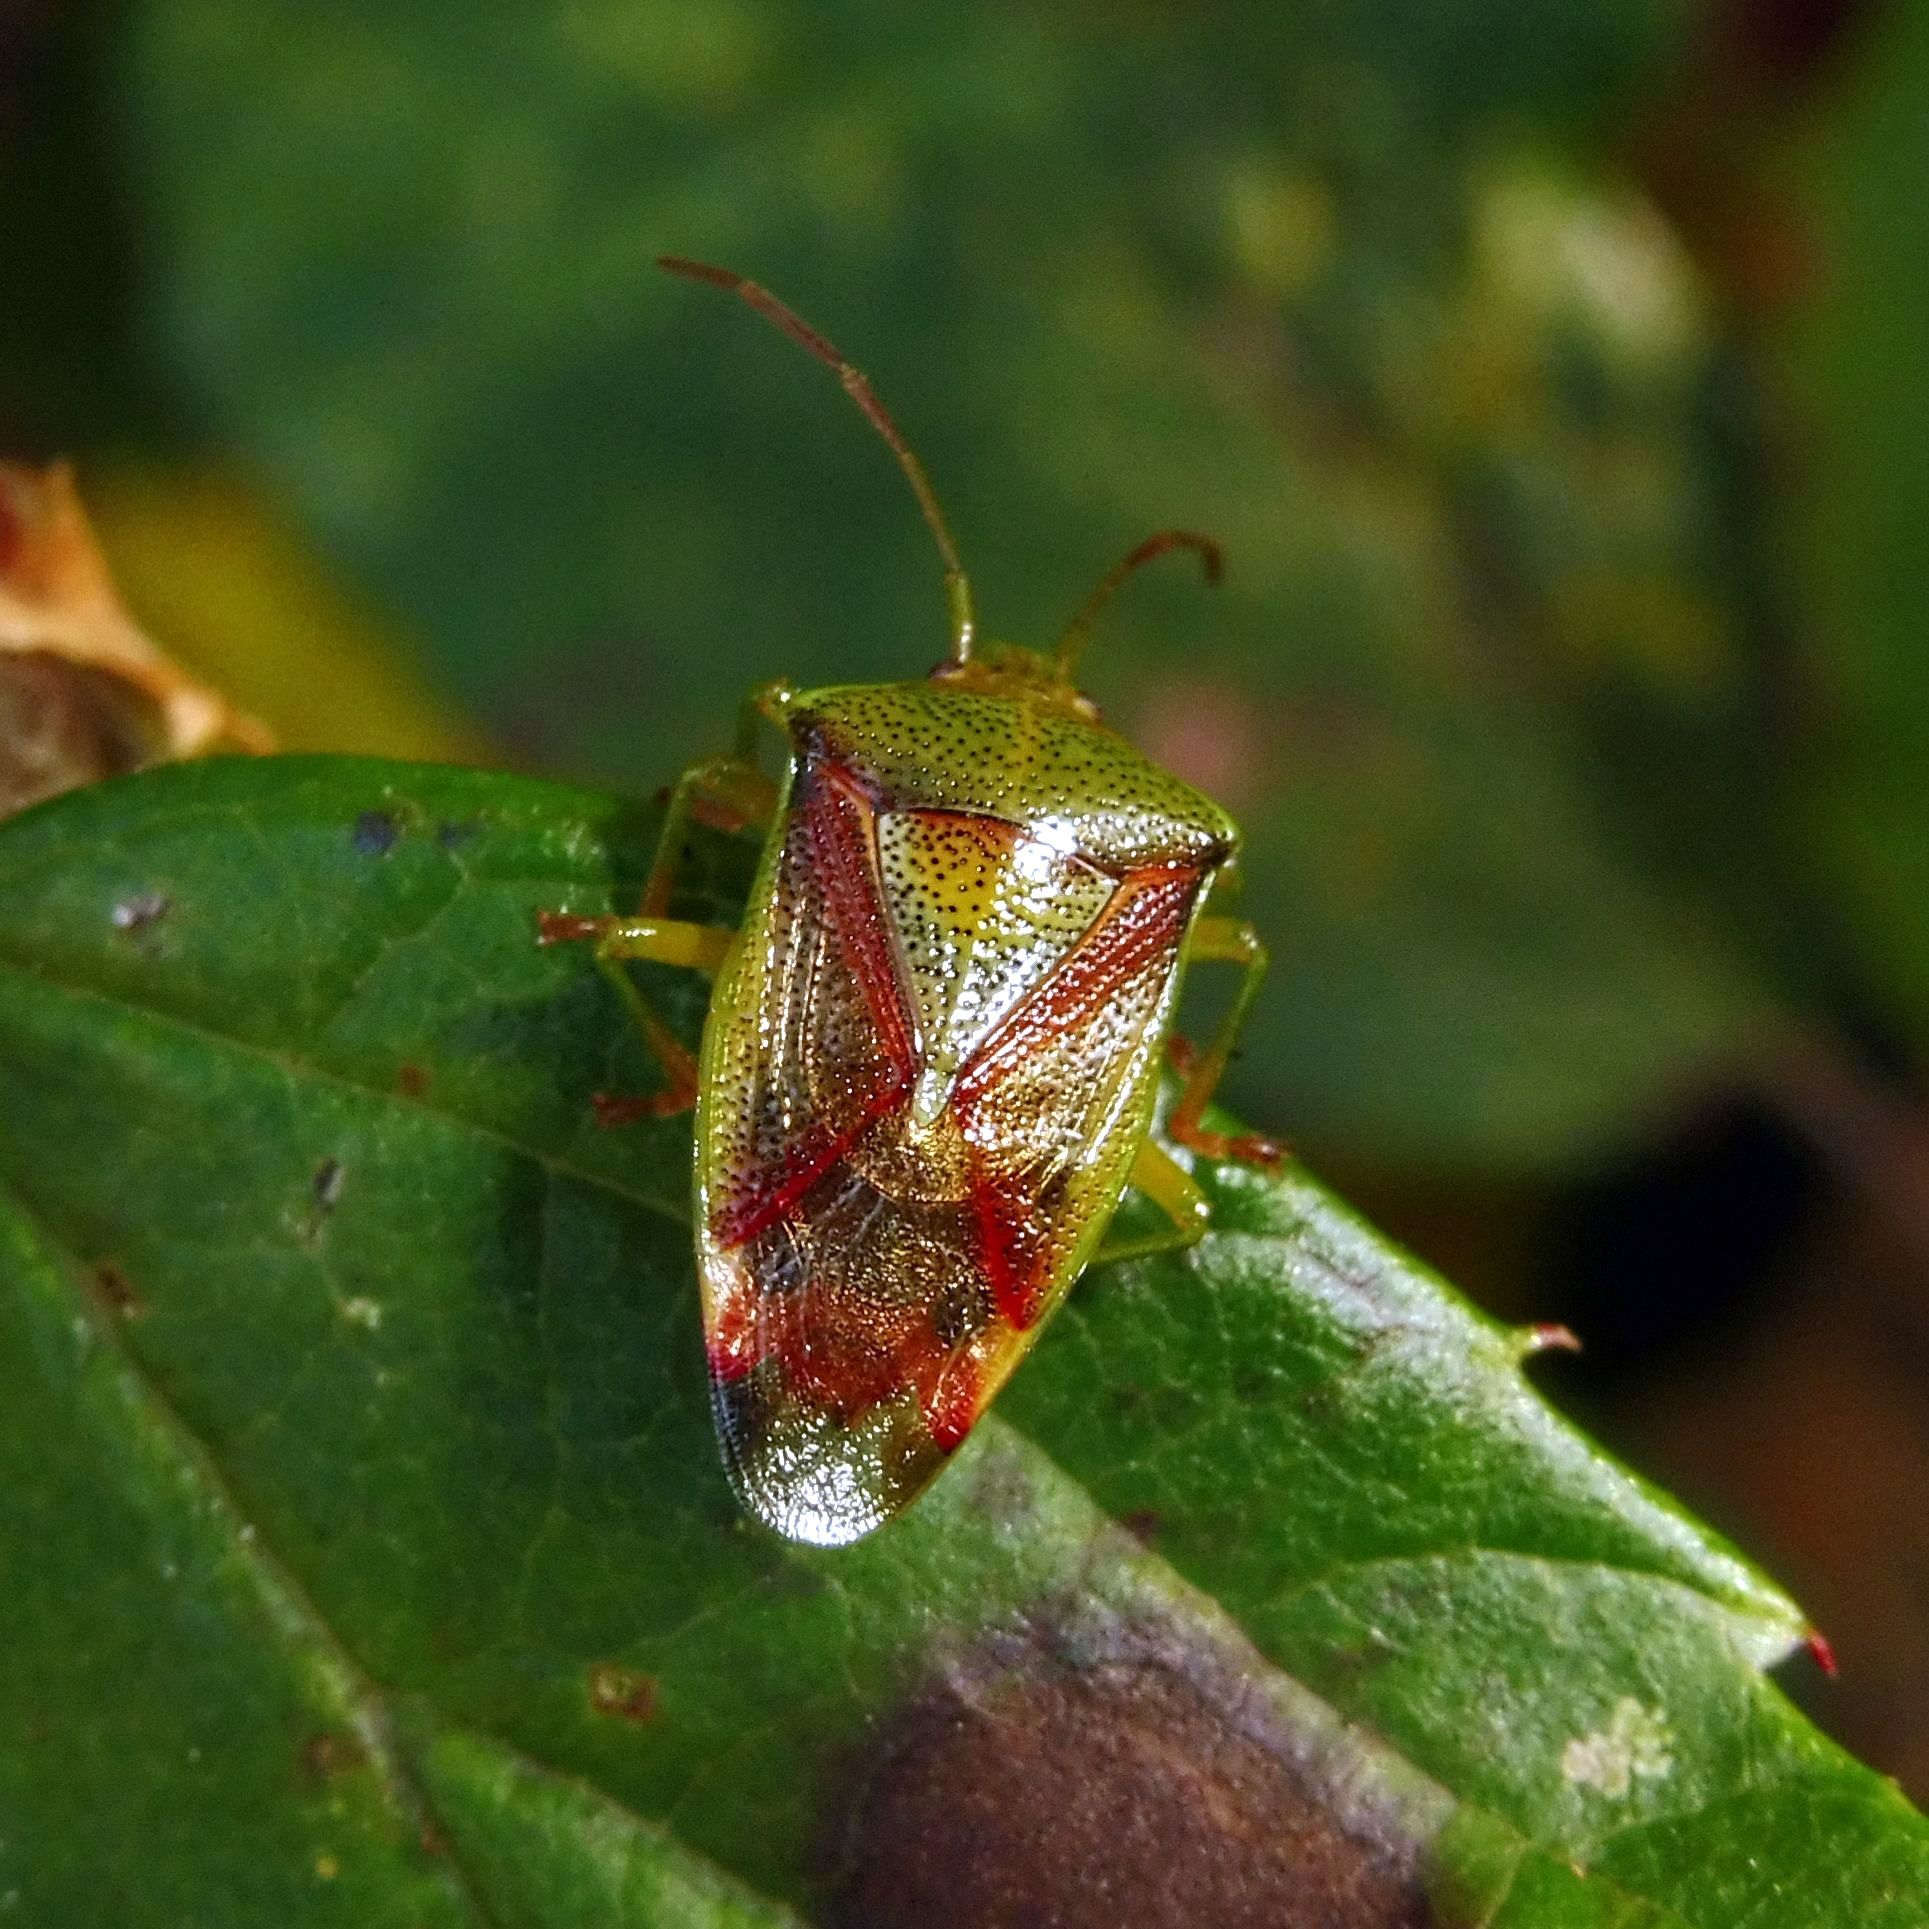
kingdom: Animalia
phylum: Arthropoda
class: Insecta
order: Hemiptera
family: Acanthosomatidae
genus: Elasmostethus
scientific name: Elasmostethus interstinctus
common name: Birch shieldbug
